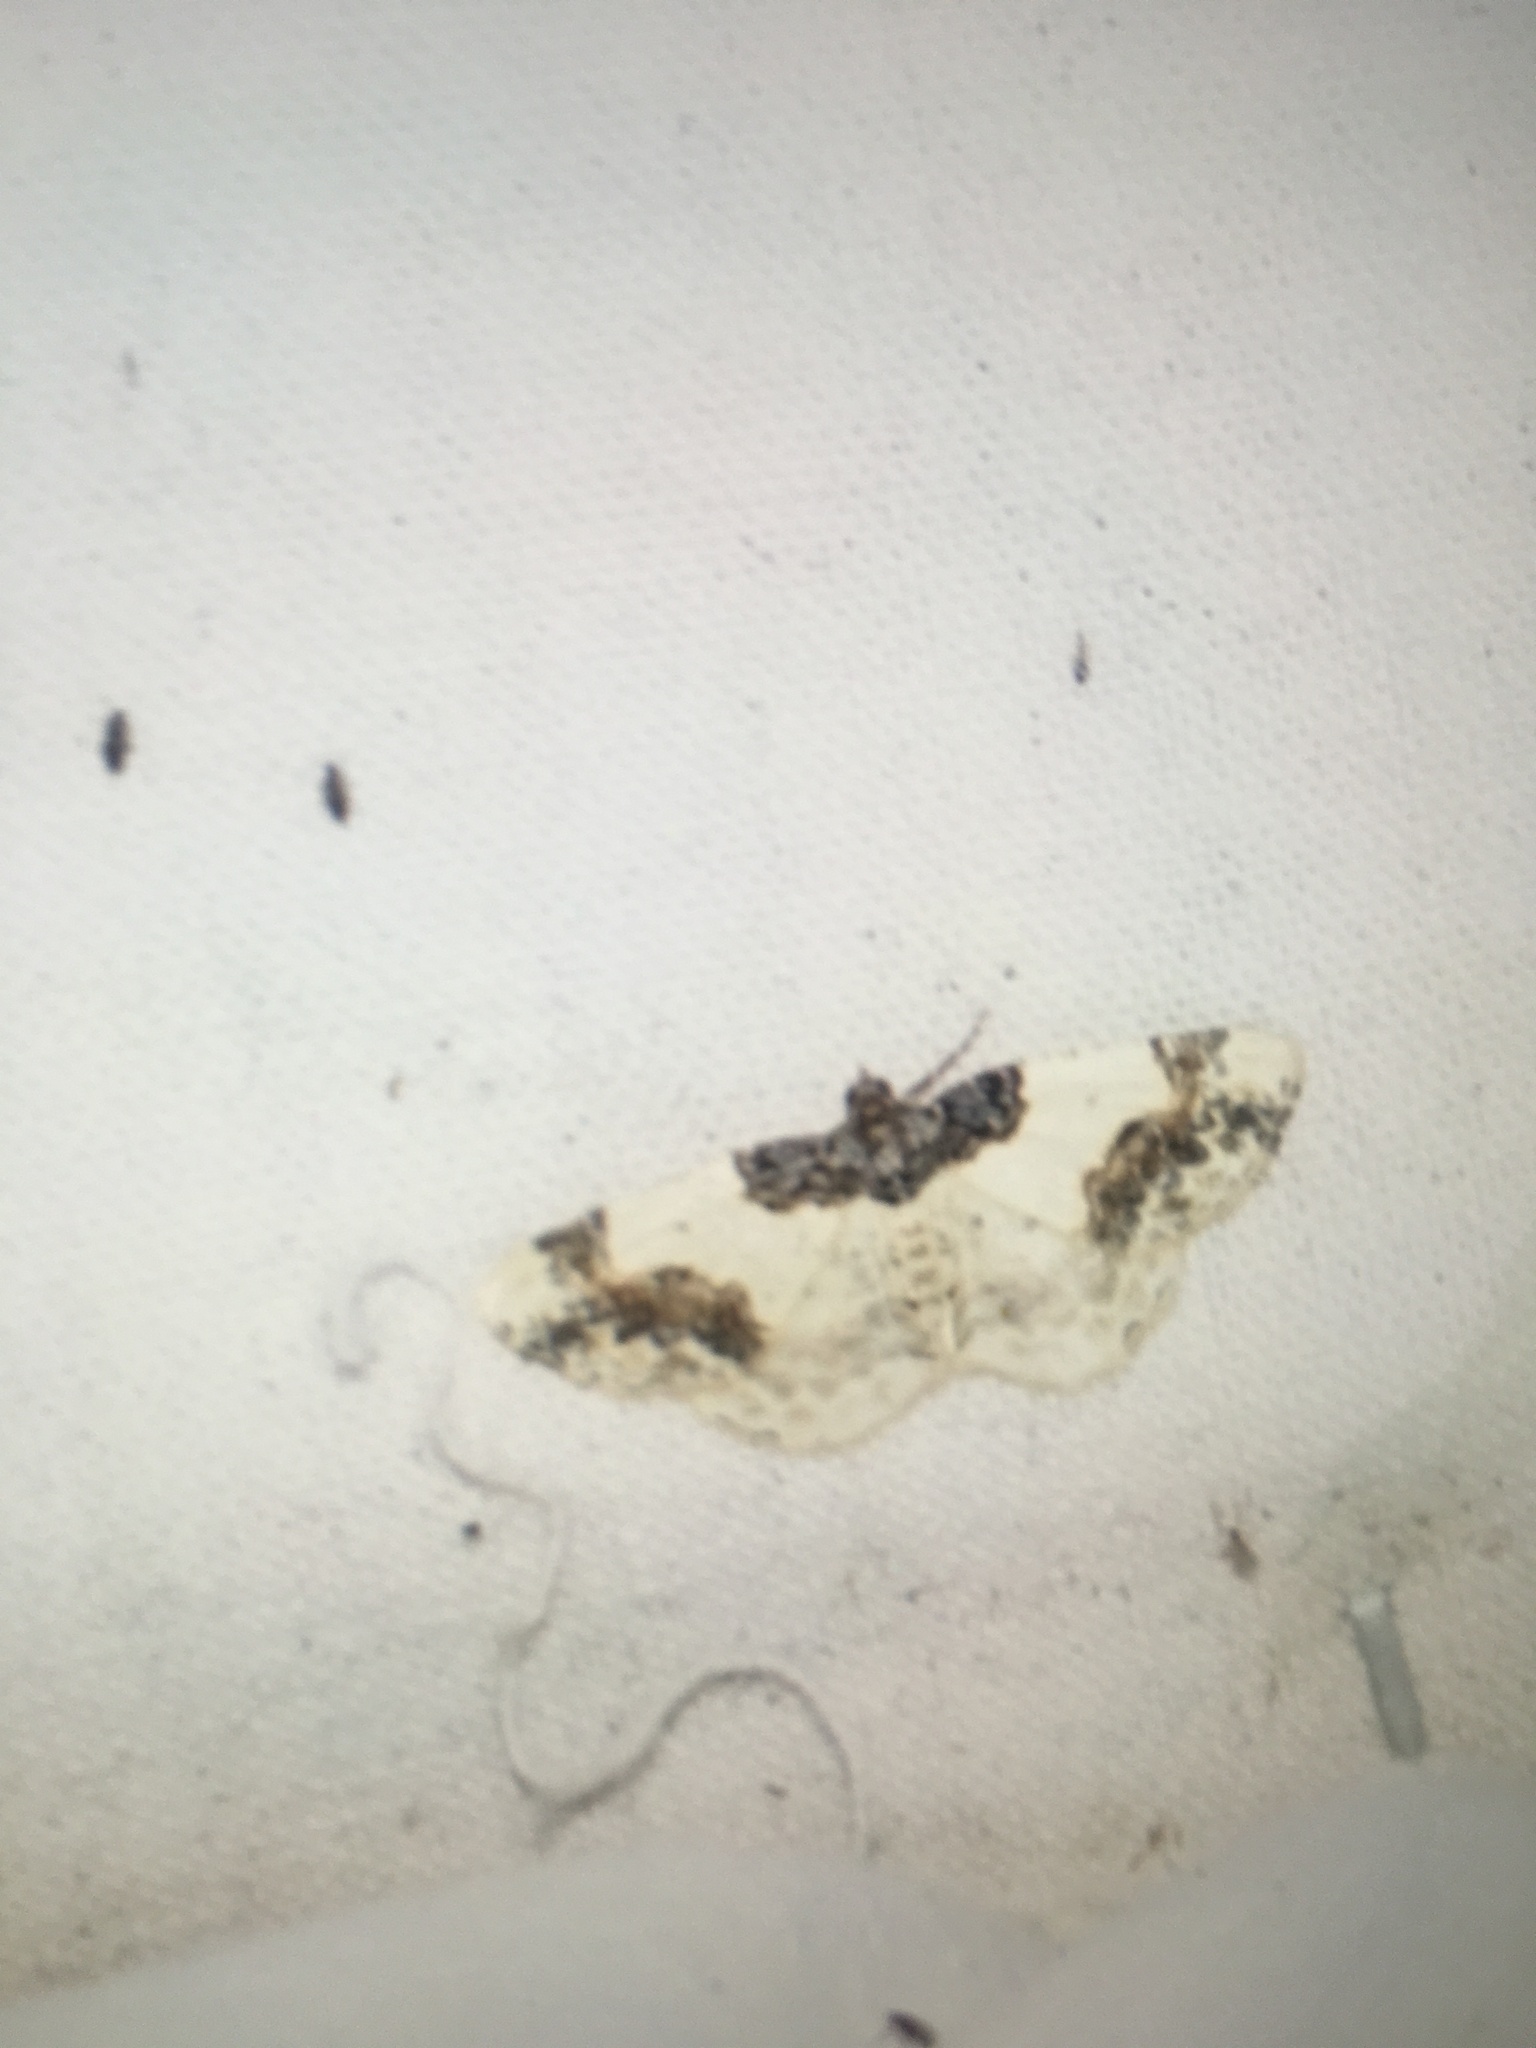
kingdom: Animalia
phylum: Arthropoda
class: Insecta
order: Lepidoptera
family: Geometridae
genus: Ligdia
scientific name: Ligdia adustata
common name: Scorched carpet
